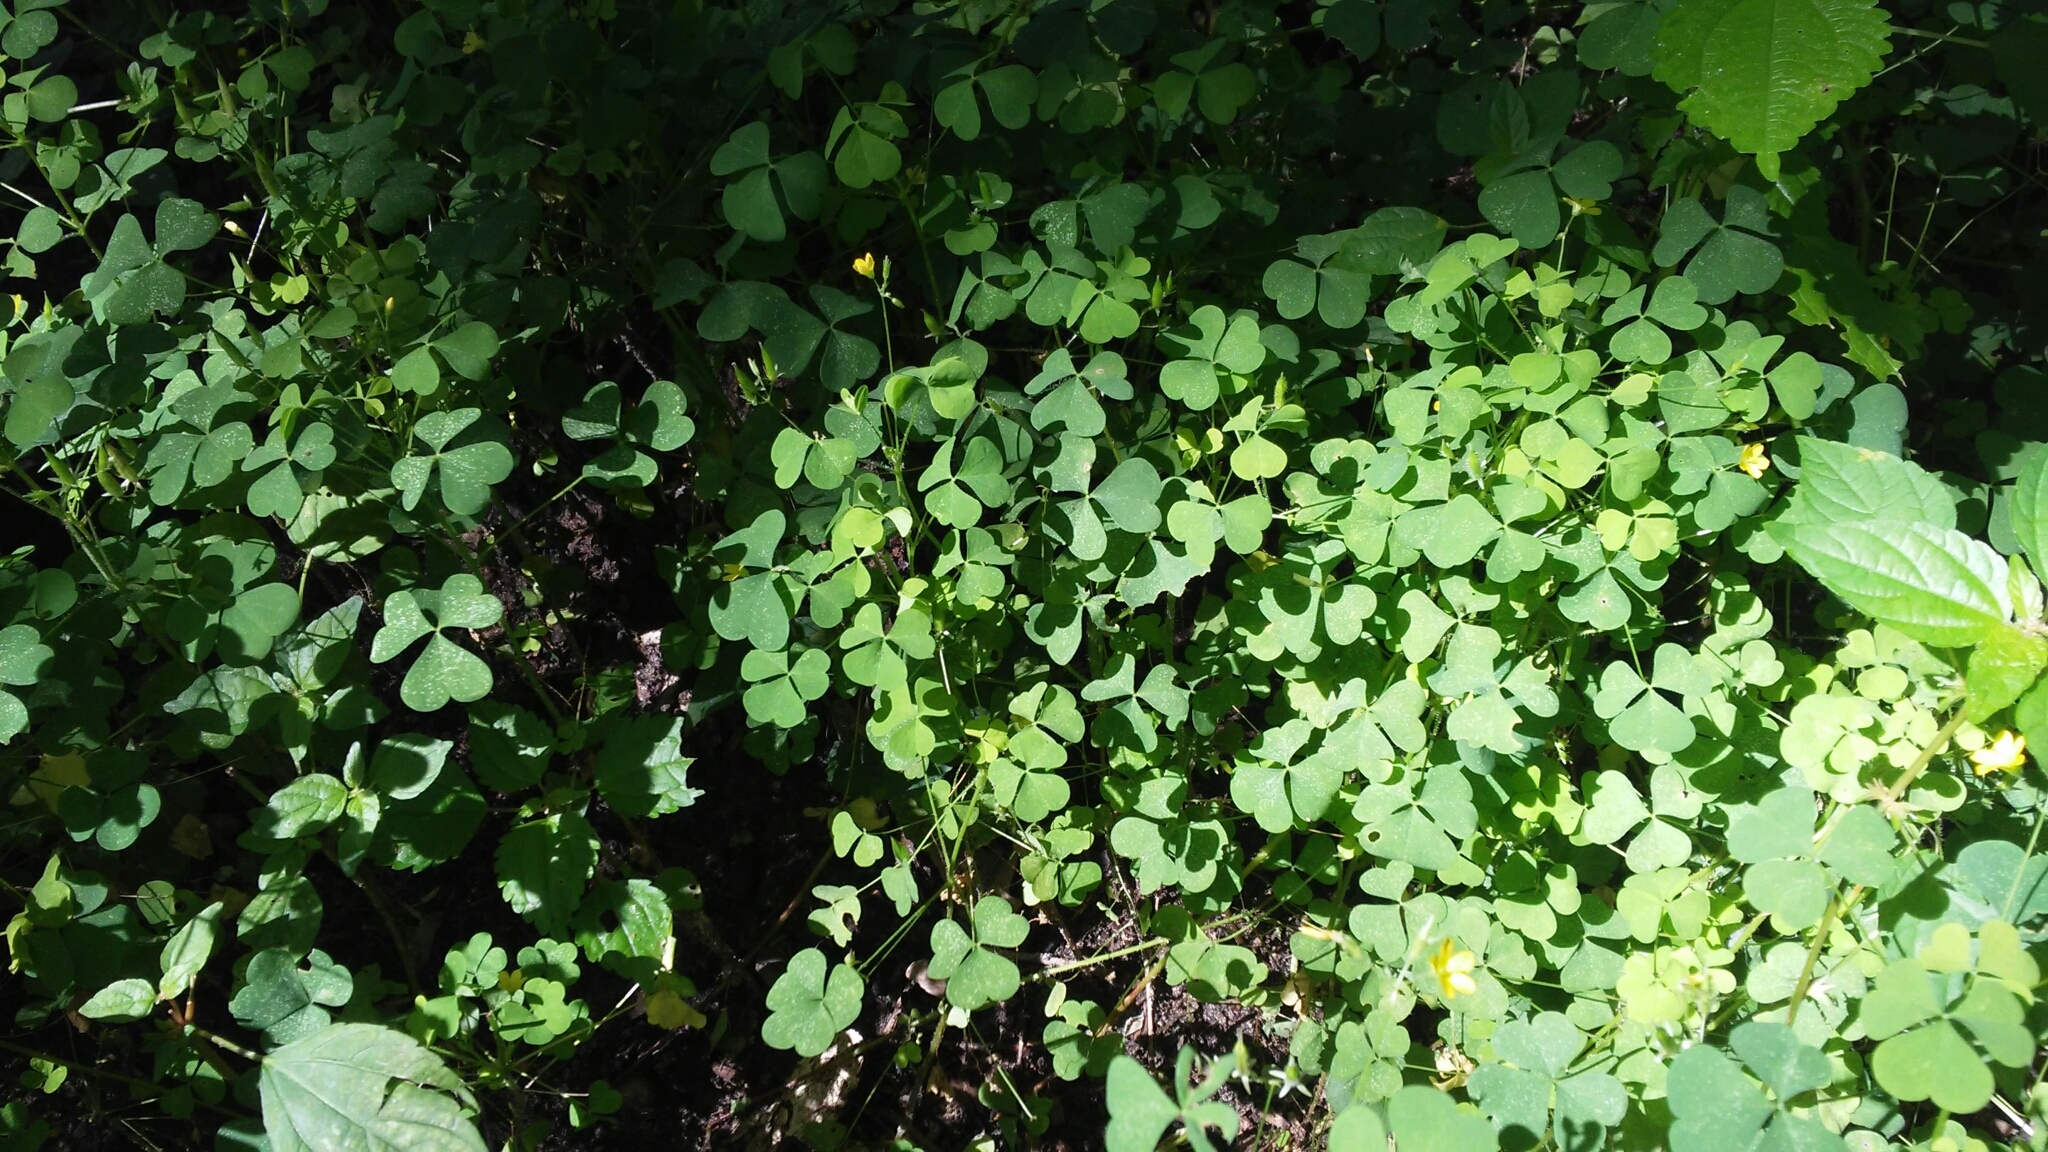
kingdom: Plantae
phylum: Tracheophyta
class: Magnoliopsida
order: Oxalidales
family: Oxalidaceae
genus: Oxalis
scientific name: Oxalis stricta
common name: Upright yellow-sorrel
